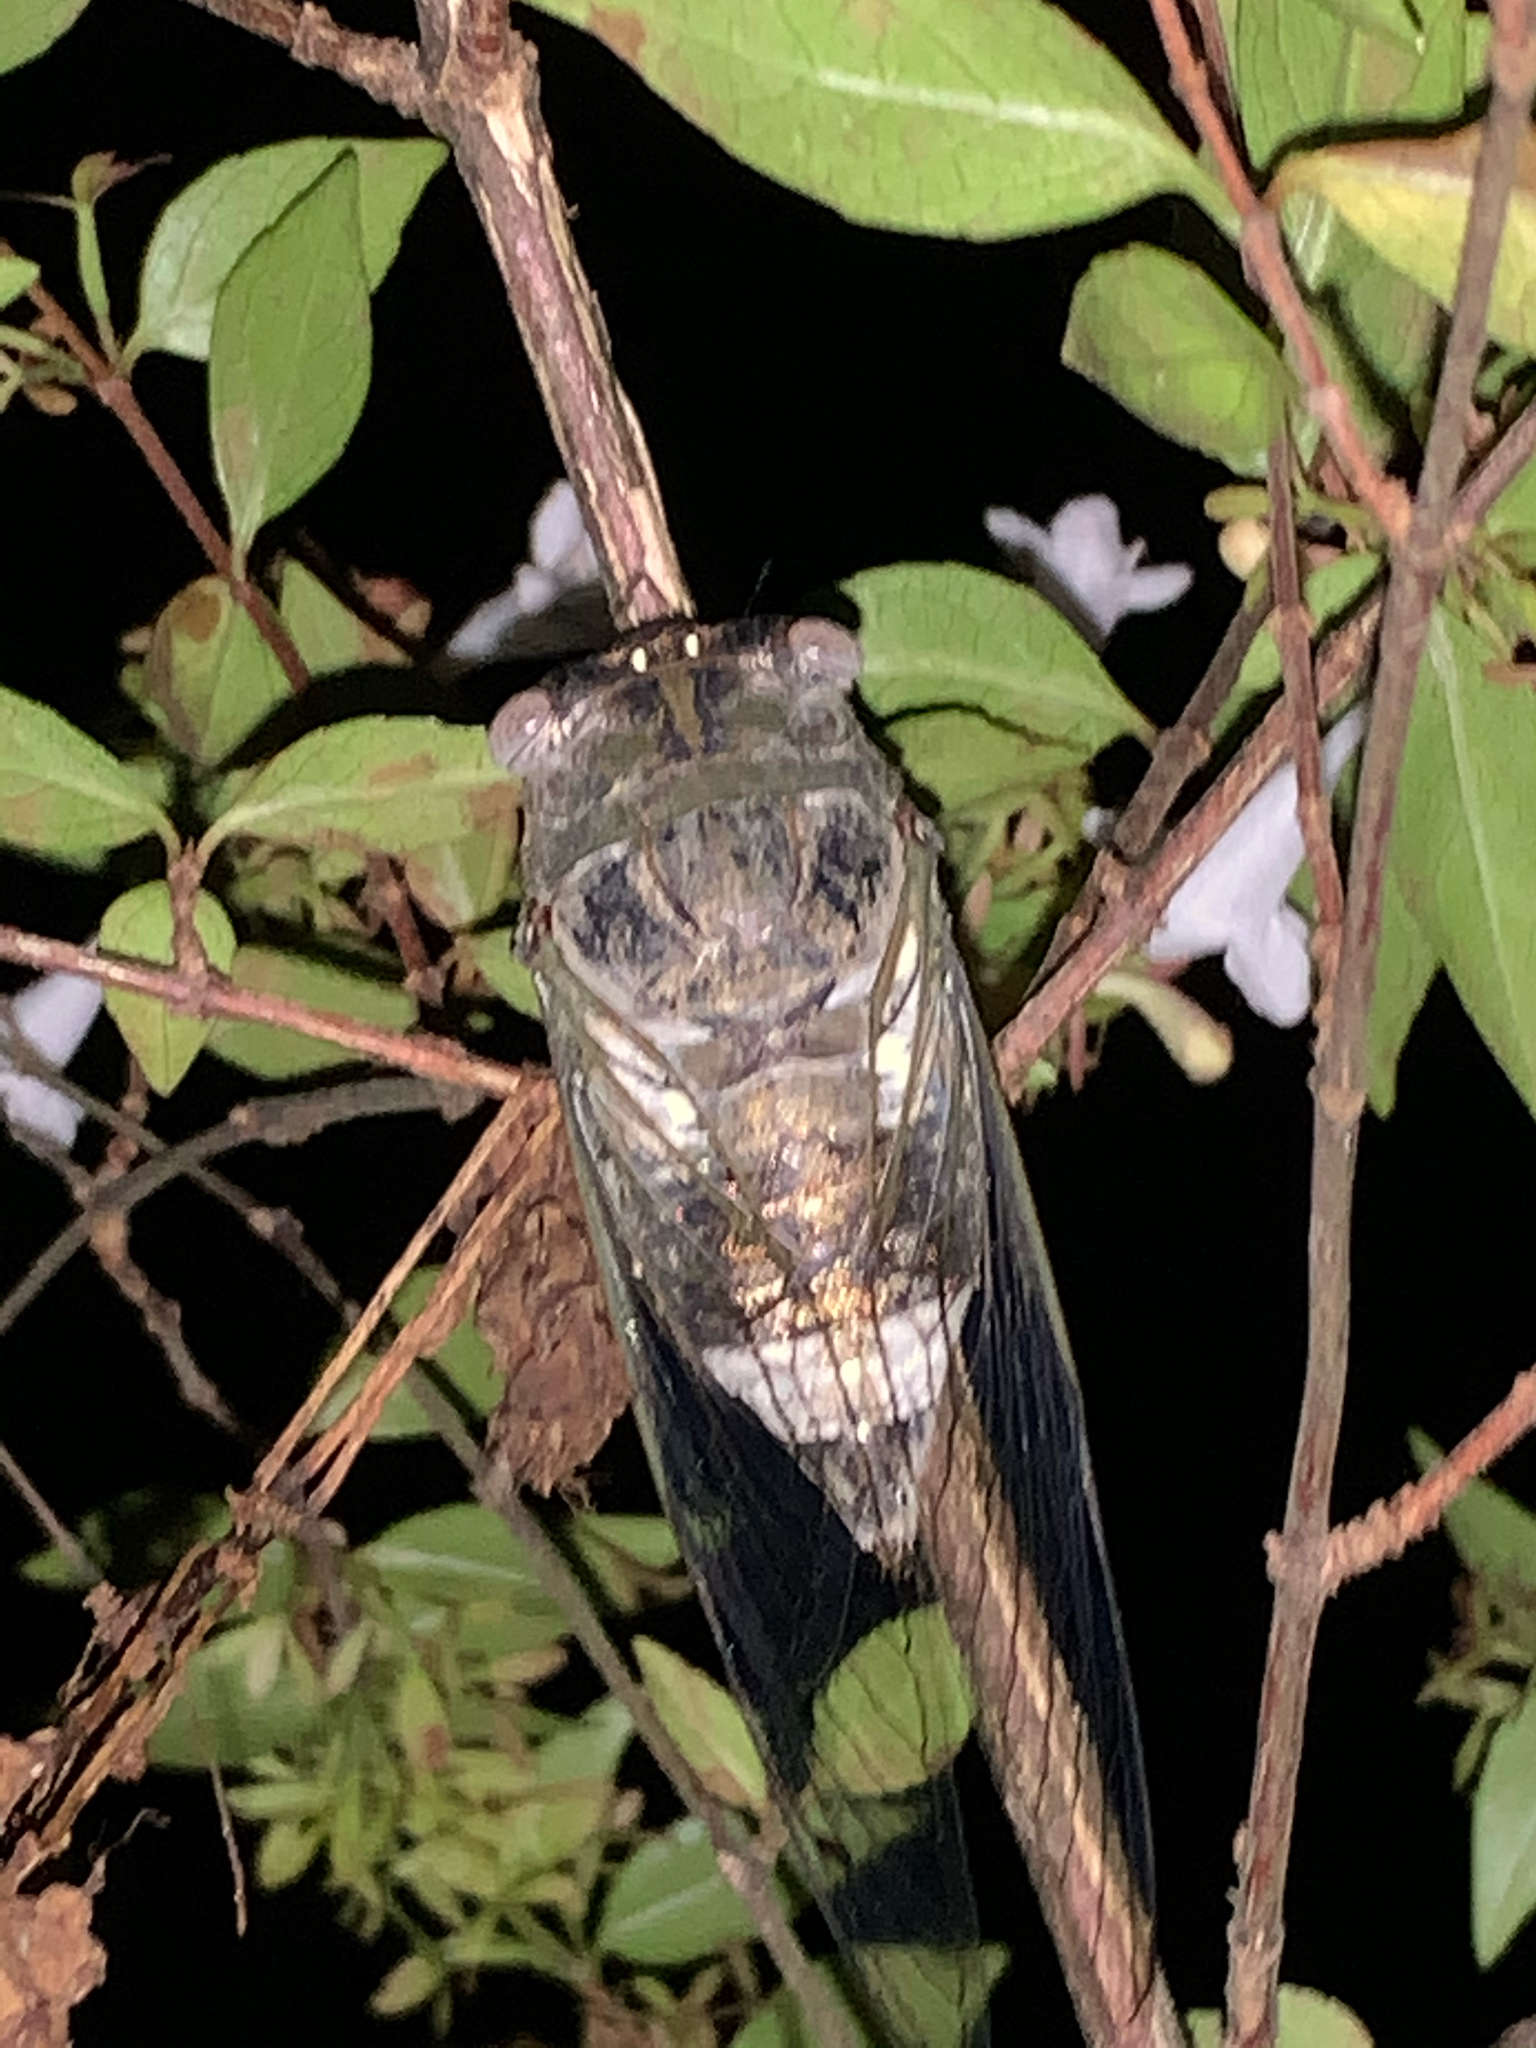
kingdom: Animalia
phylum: Arthropoda
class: Insecta
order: Hemiptera
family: Cicadidae
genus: Diceroprocta
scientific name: Diceroprocta grossa
